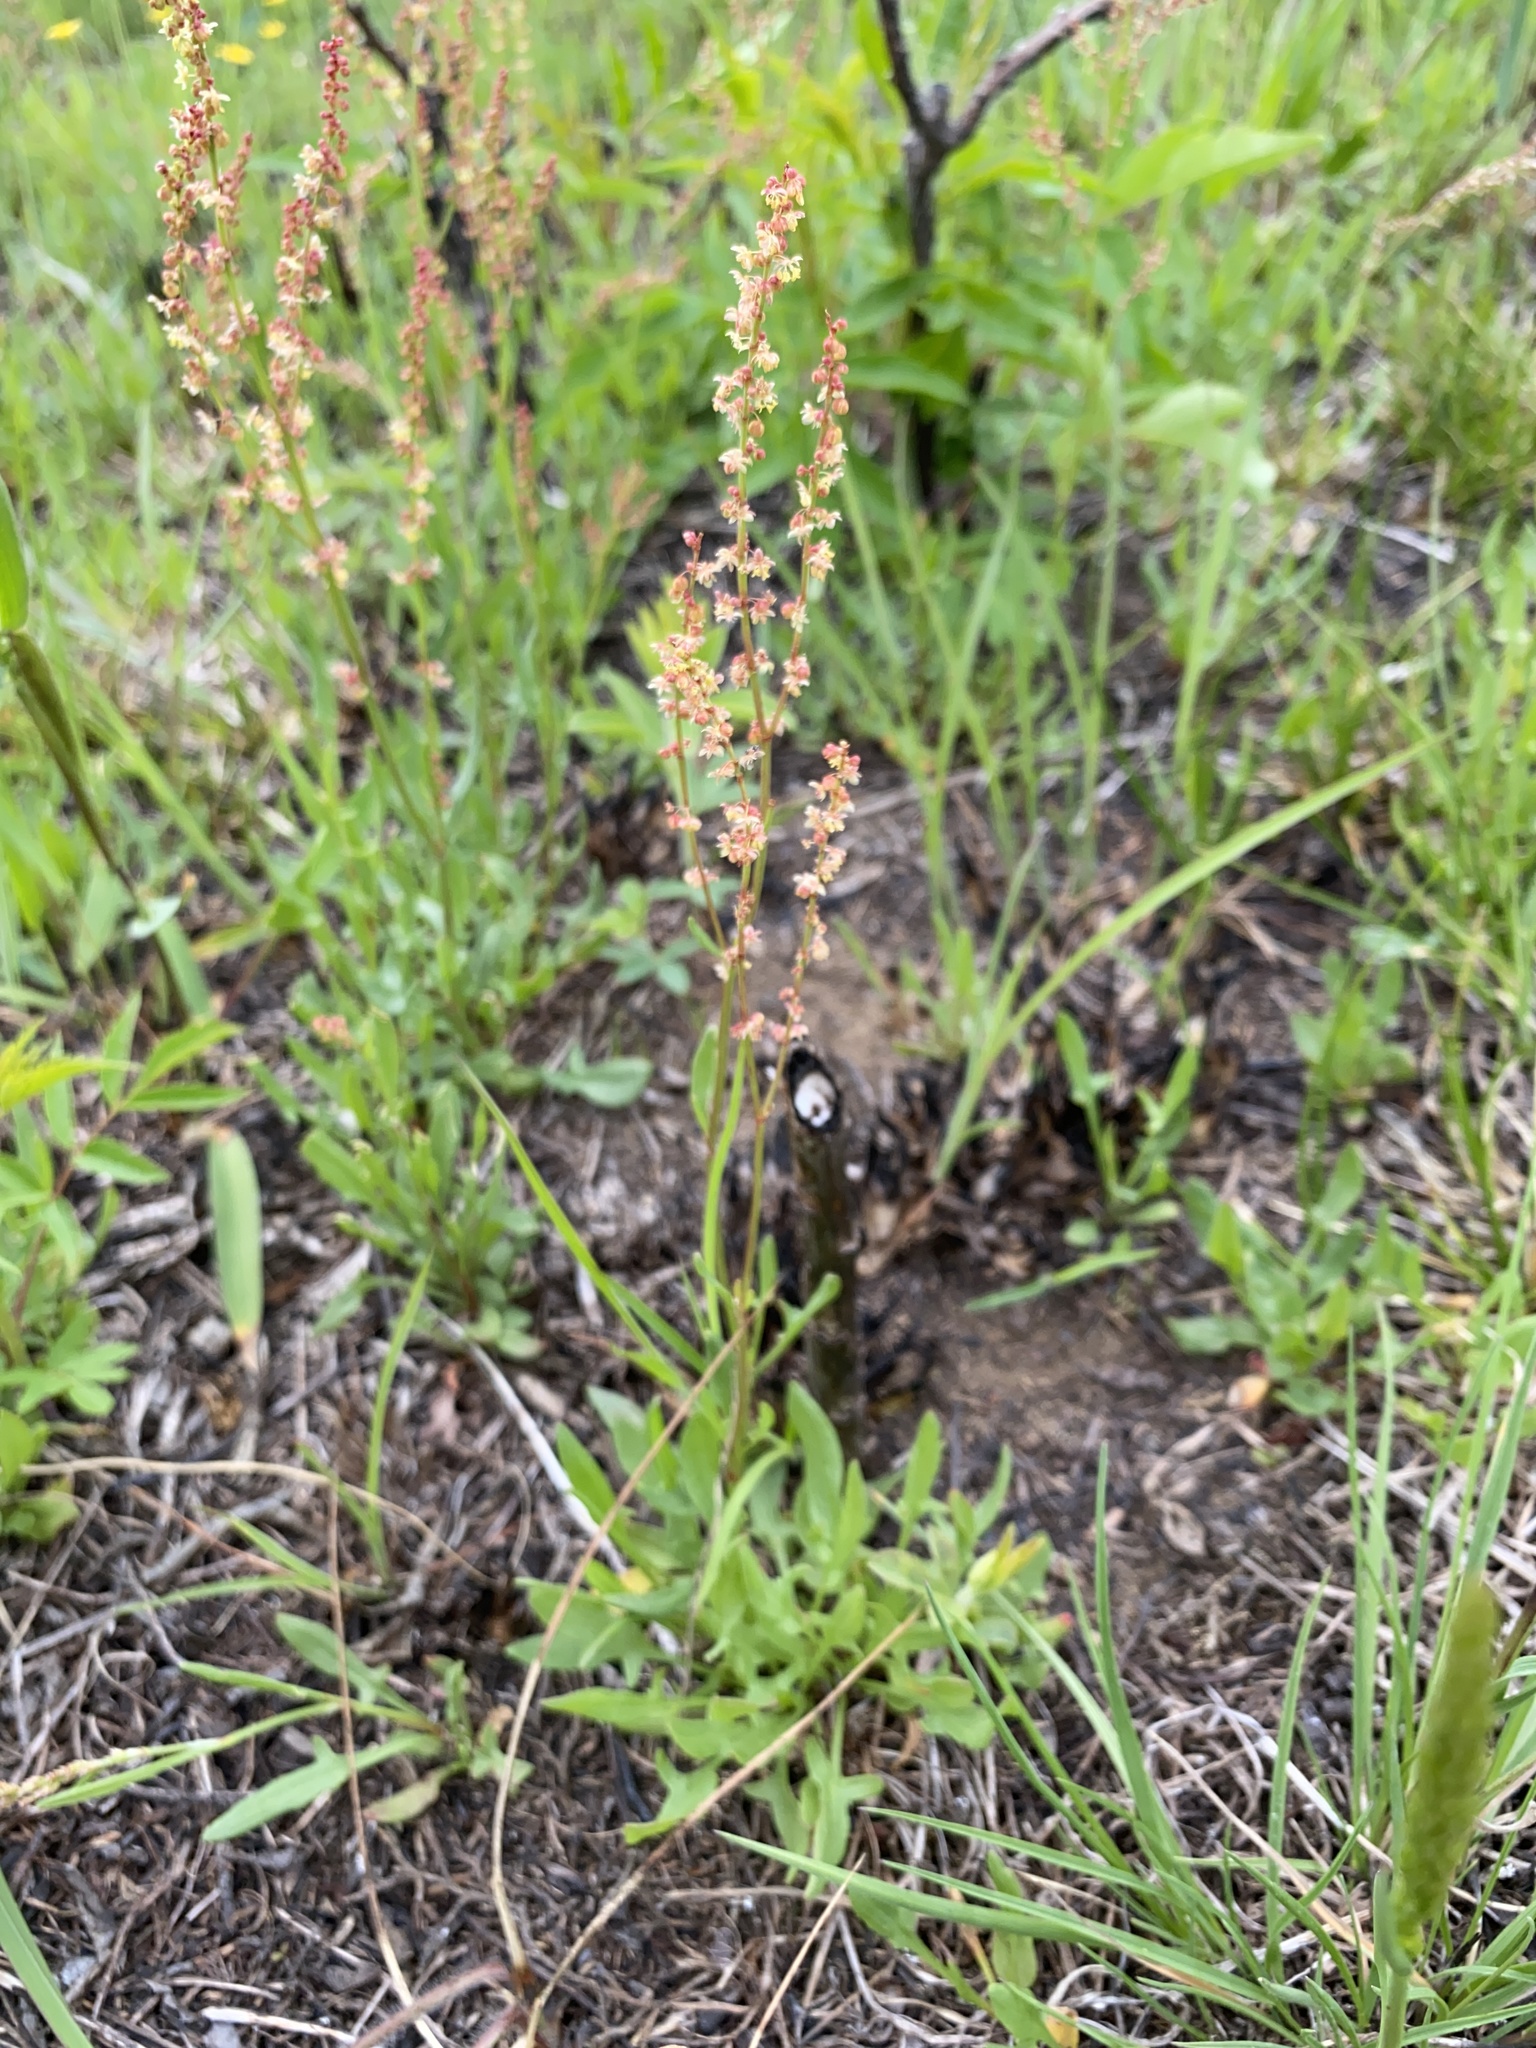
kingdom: Plantae
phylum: Tracheophyta
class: Magnoliopsida
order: Caryophyllales
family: Polygonaceae
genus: Rumex
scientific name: Rumex acetosella
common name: Common sheep sorrel
